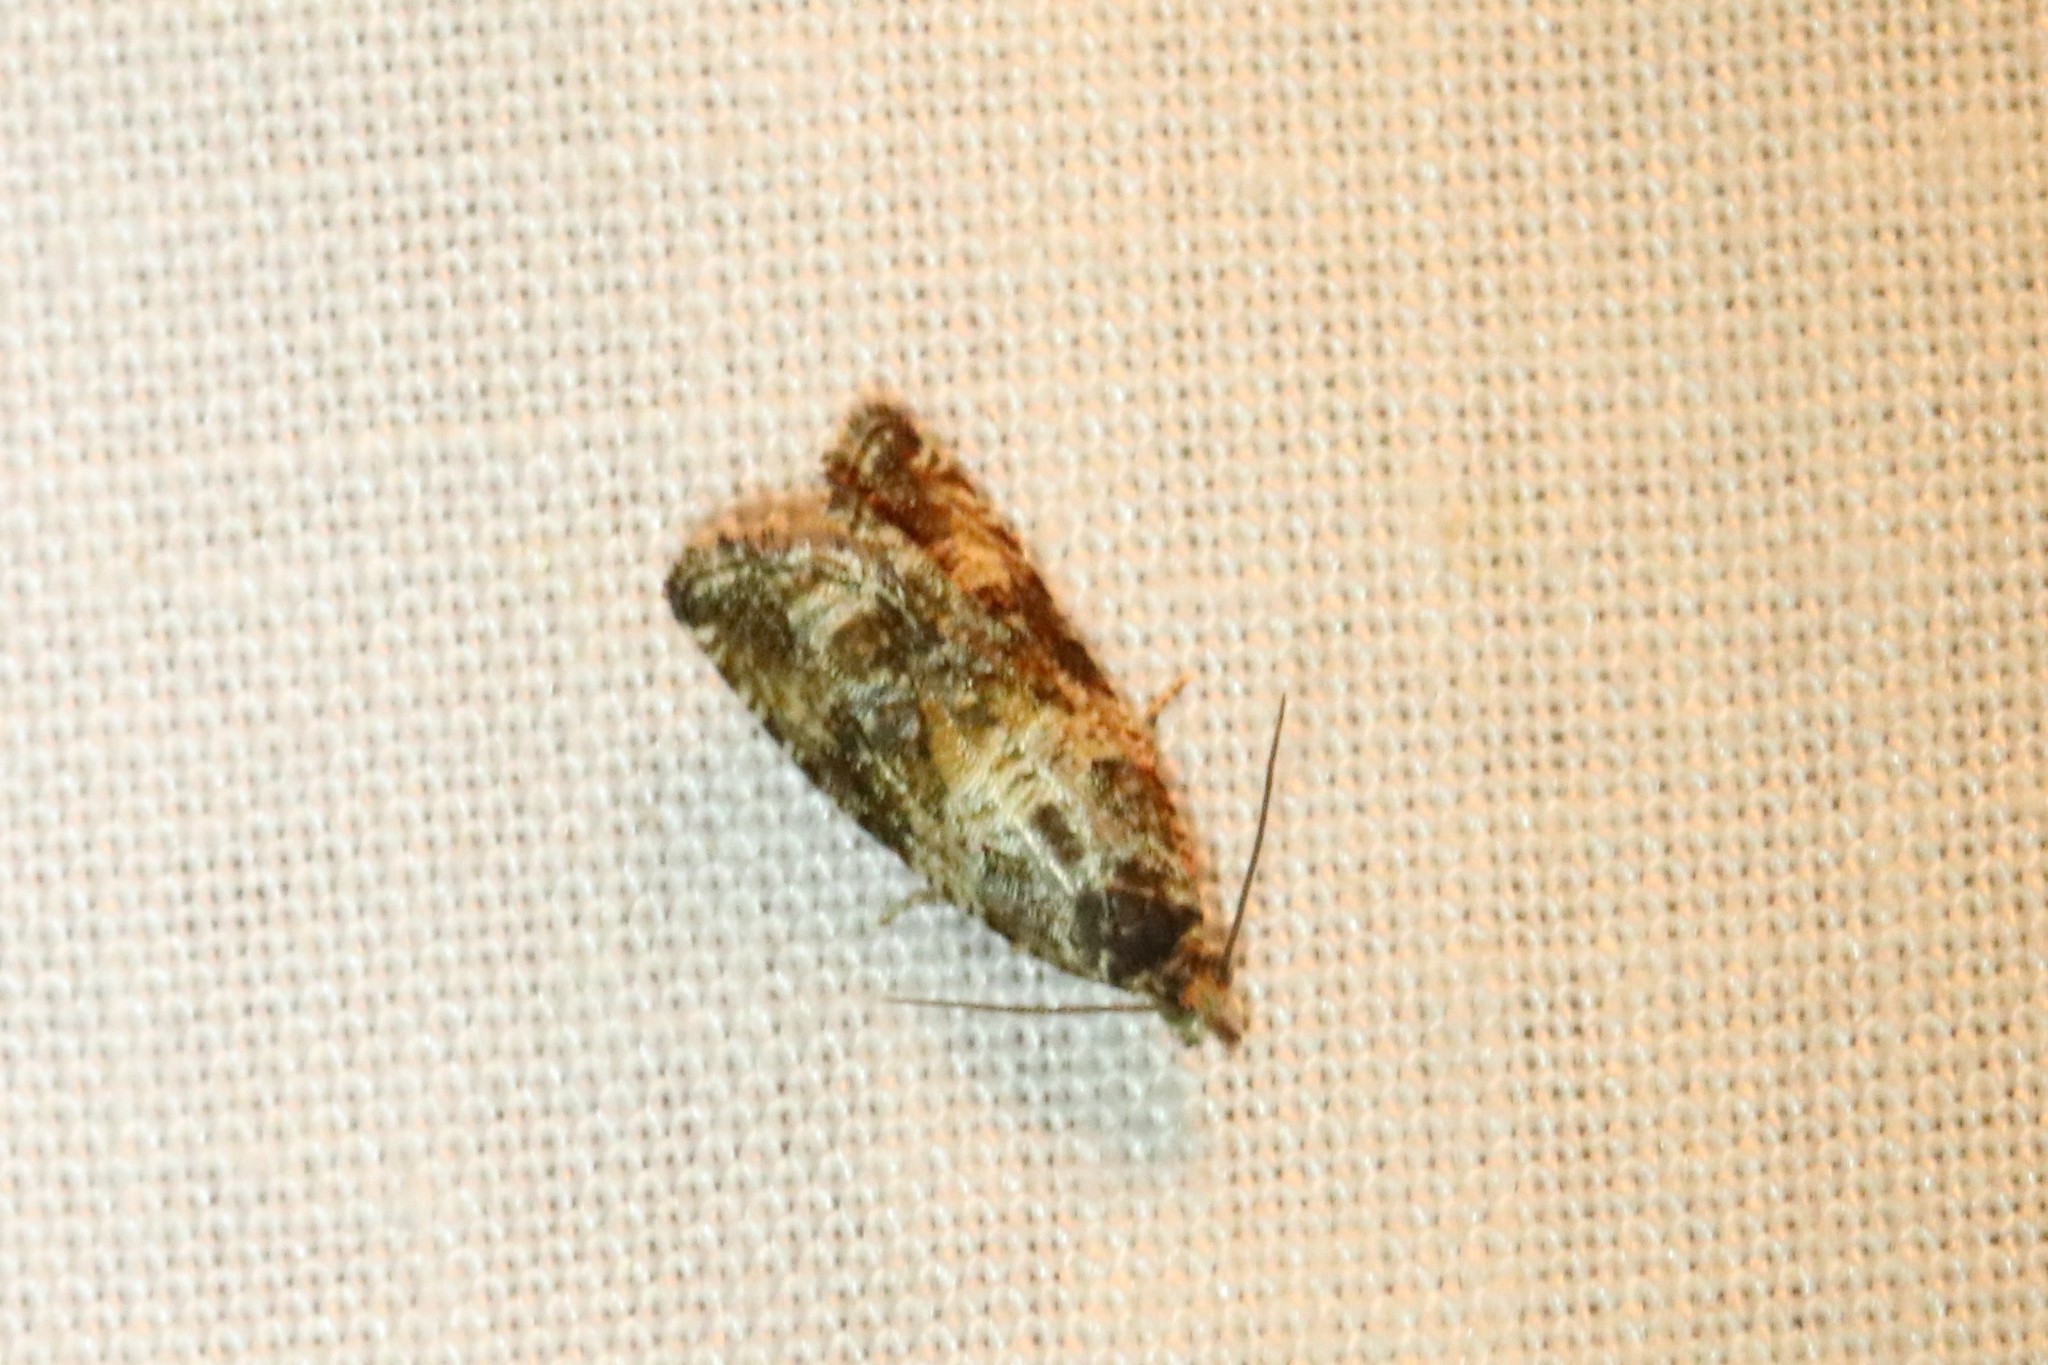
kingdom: Animalia
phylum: Arthropoda
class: Insecta
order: Lepidoptera
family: Tortricidae
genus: Celypha
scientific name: Celypha cespitana
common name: Thyme marble
